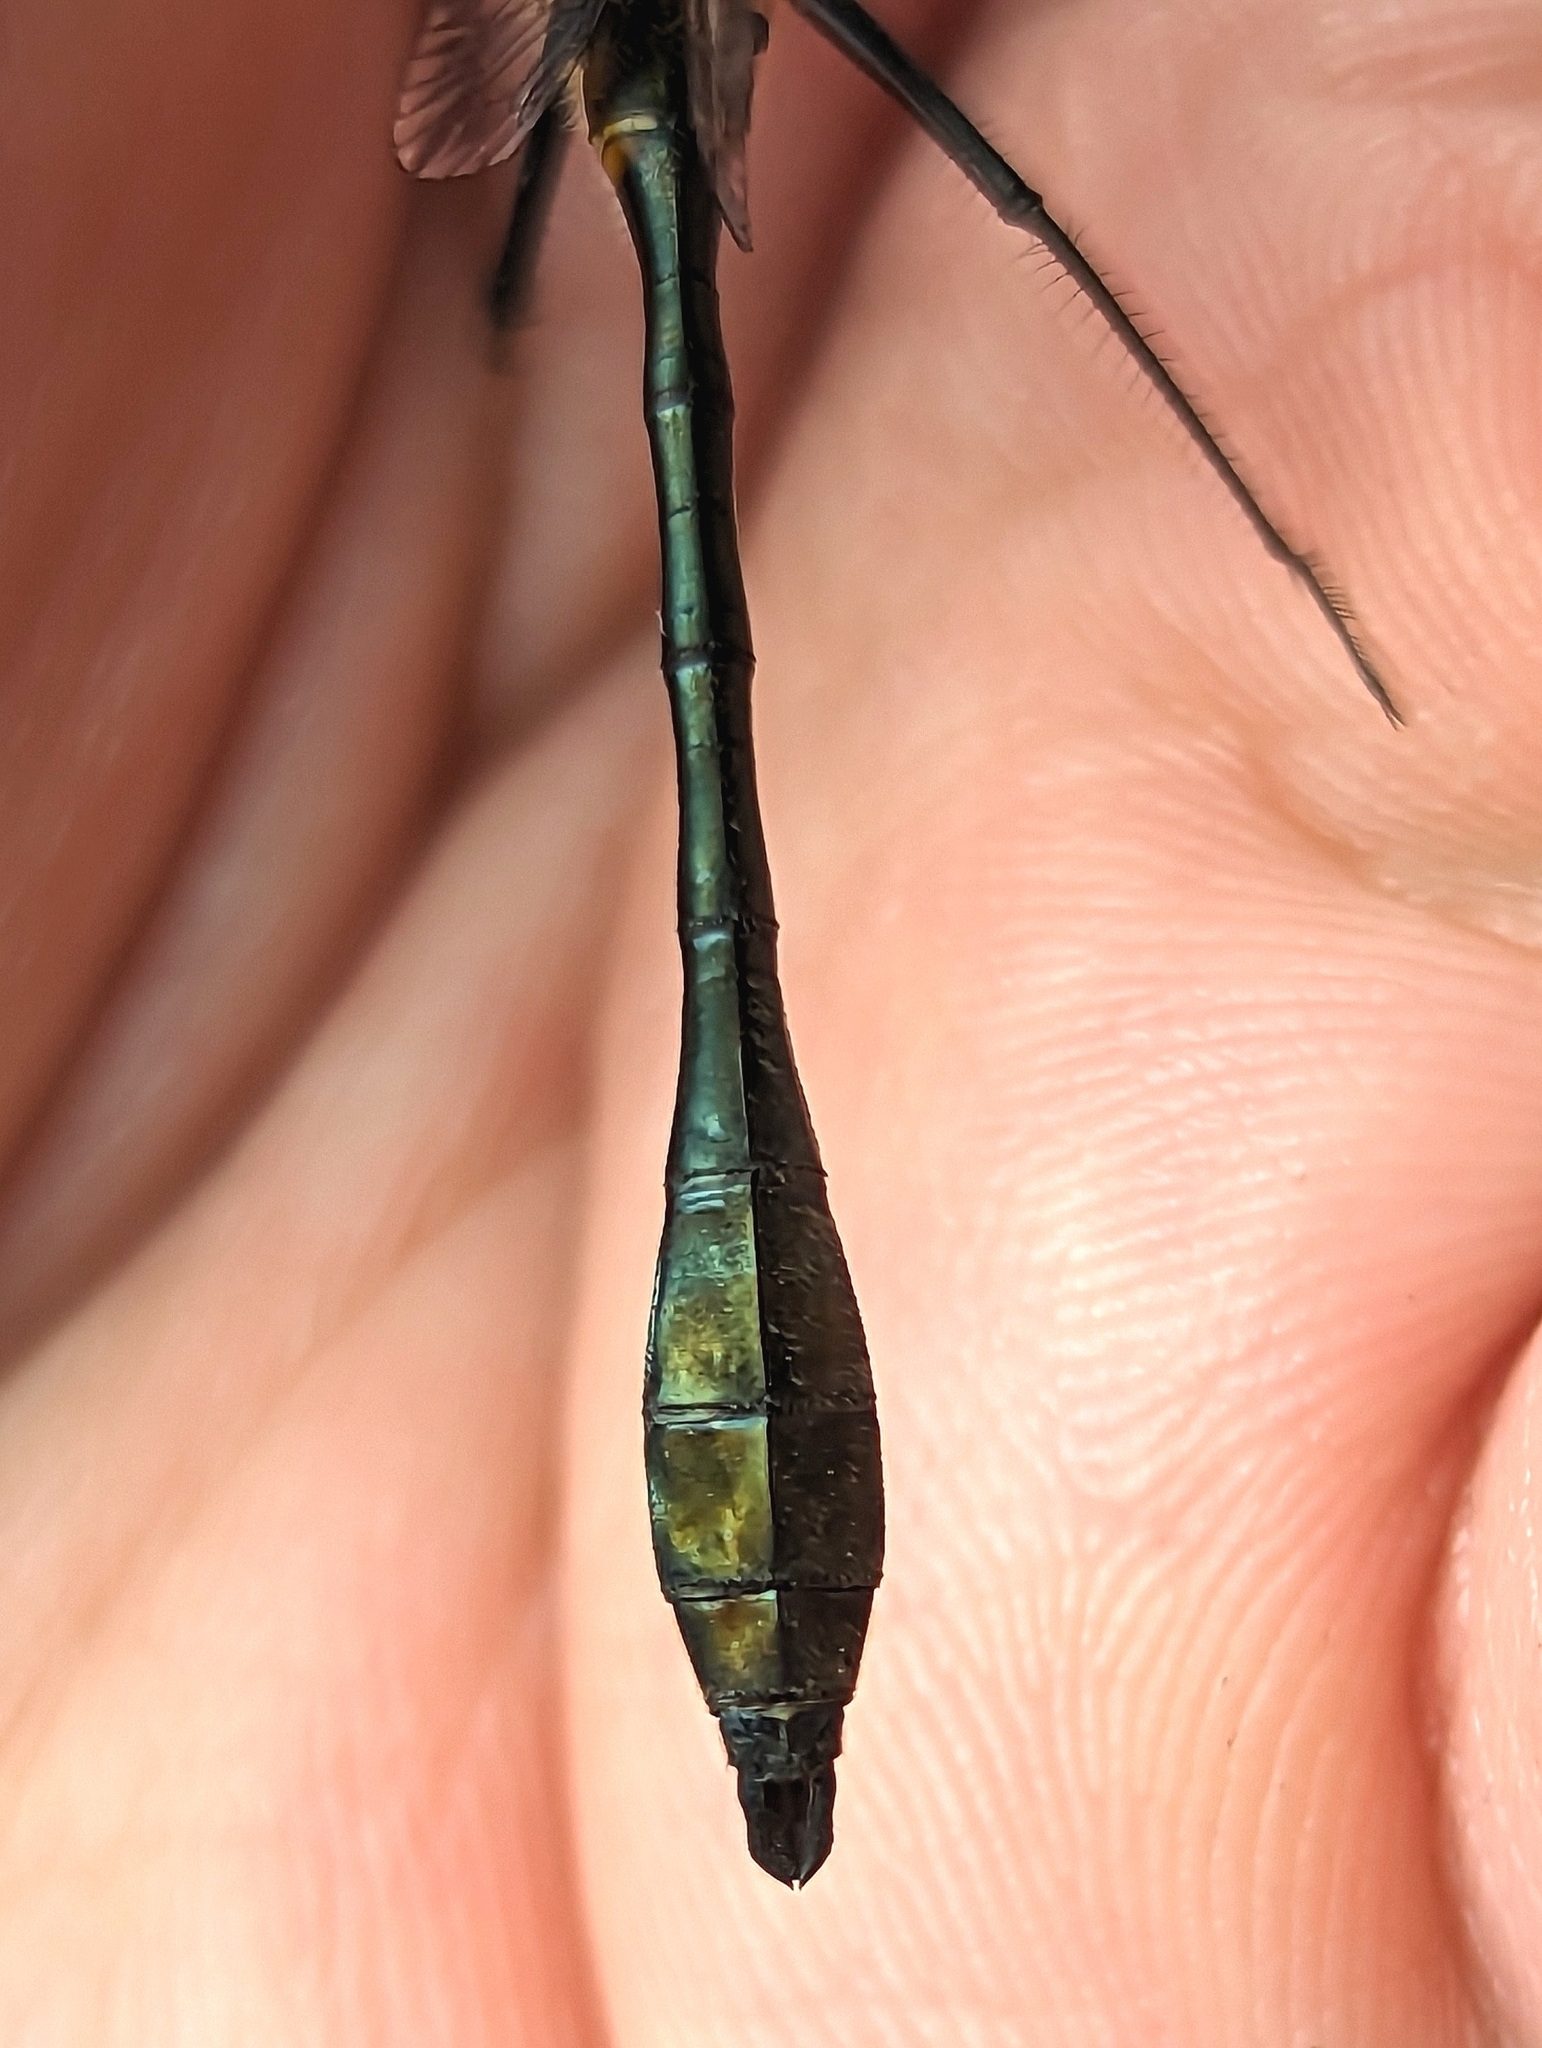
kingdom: Animalia
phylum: Arthropoda
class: Insecta
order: Odonata
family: Corduliidae
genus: Dorocordulia
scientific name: Dorocordulia libera
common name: Racket-tailed emerald
